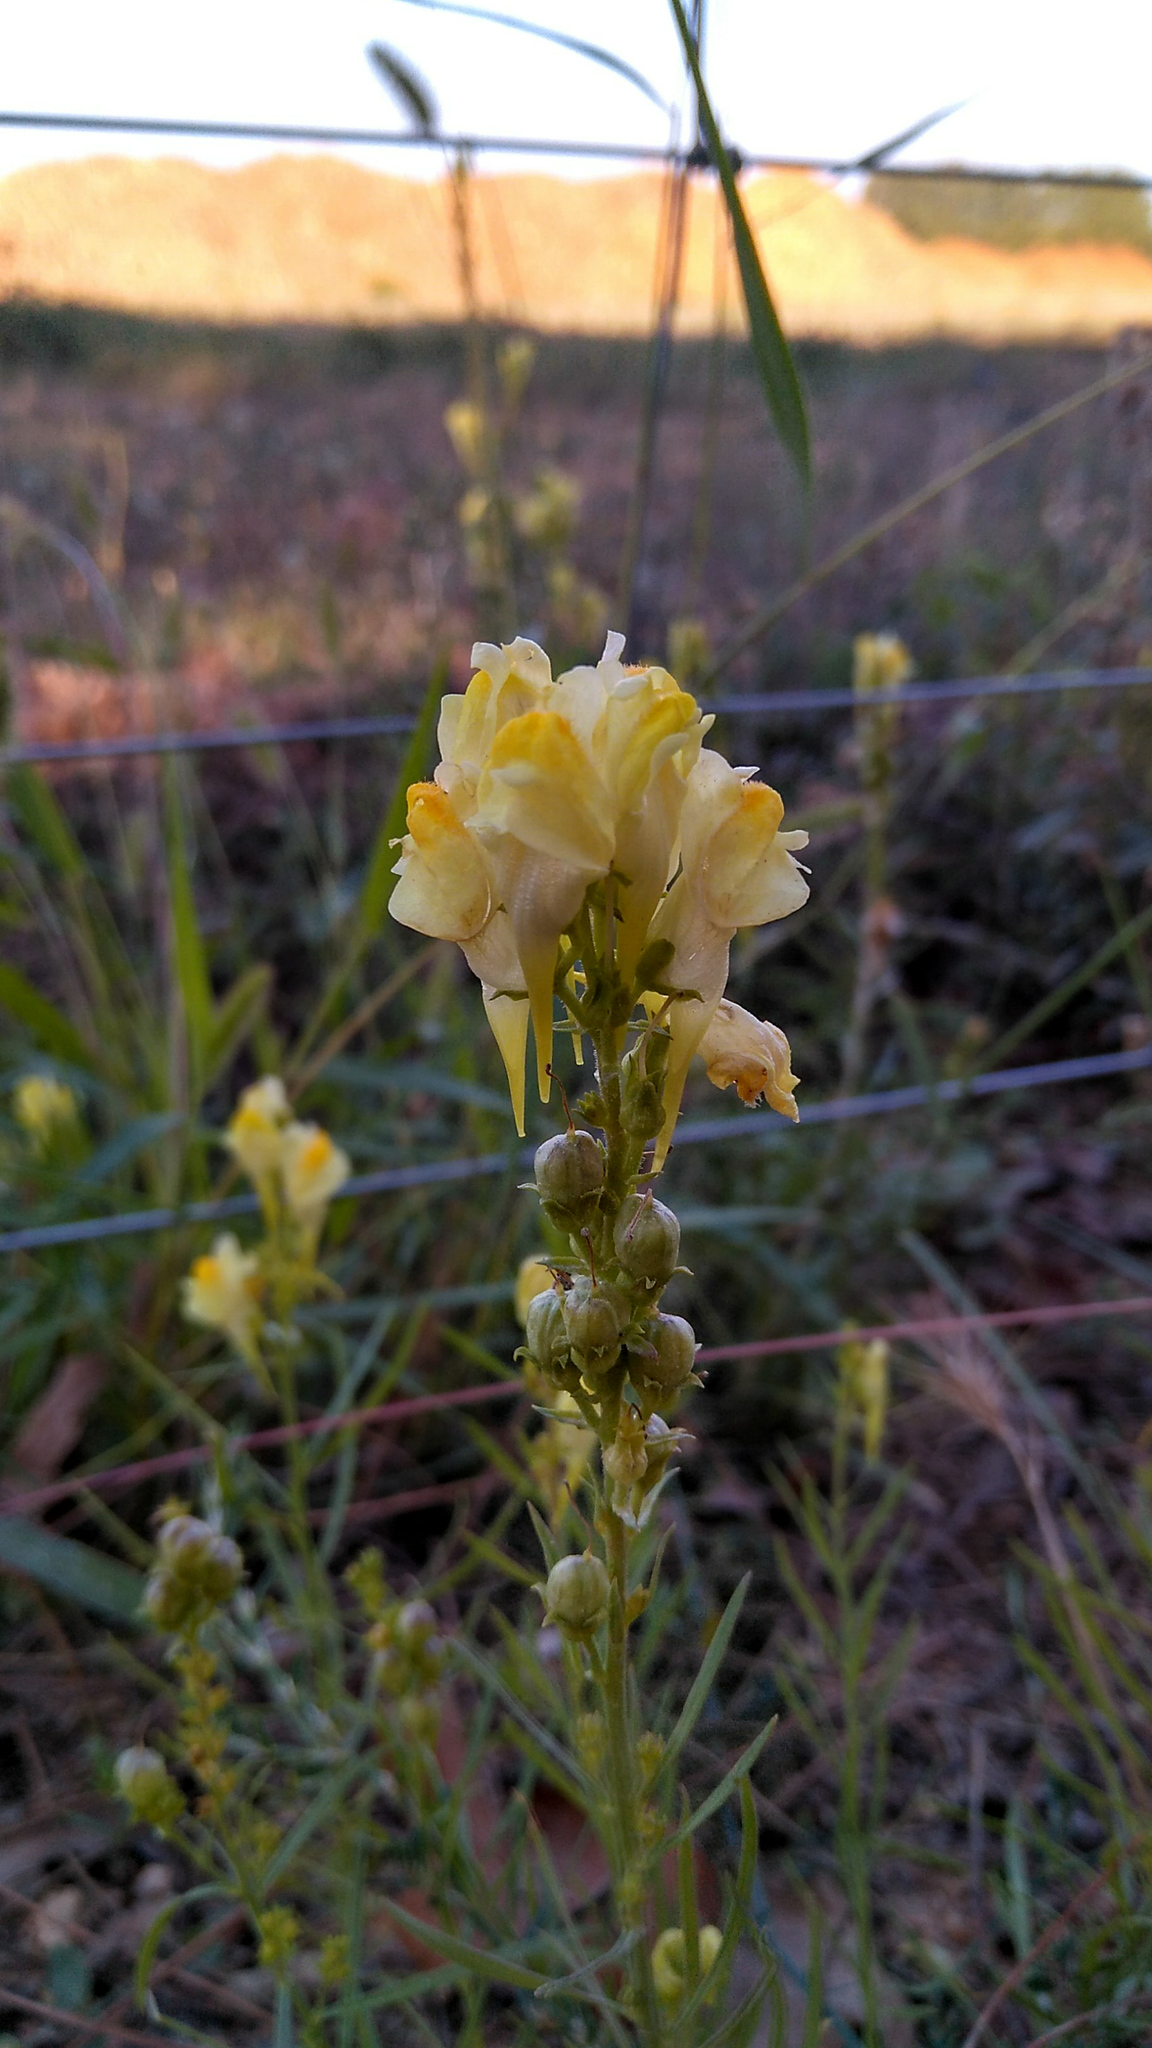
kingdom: Plantae
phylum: Tracheophyta
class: Magnoliopsida
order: Lamiales
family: Plantaginaceae
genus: Linaria
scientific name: Linaria vulgaris
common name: Butter and eggs
